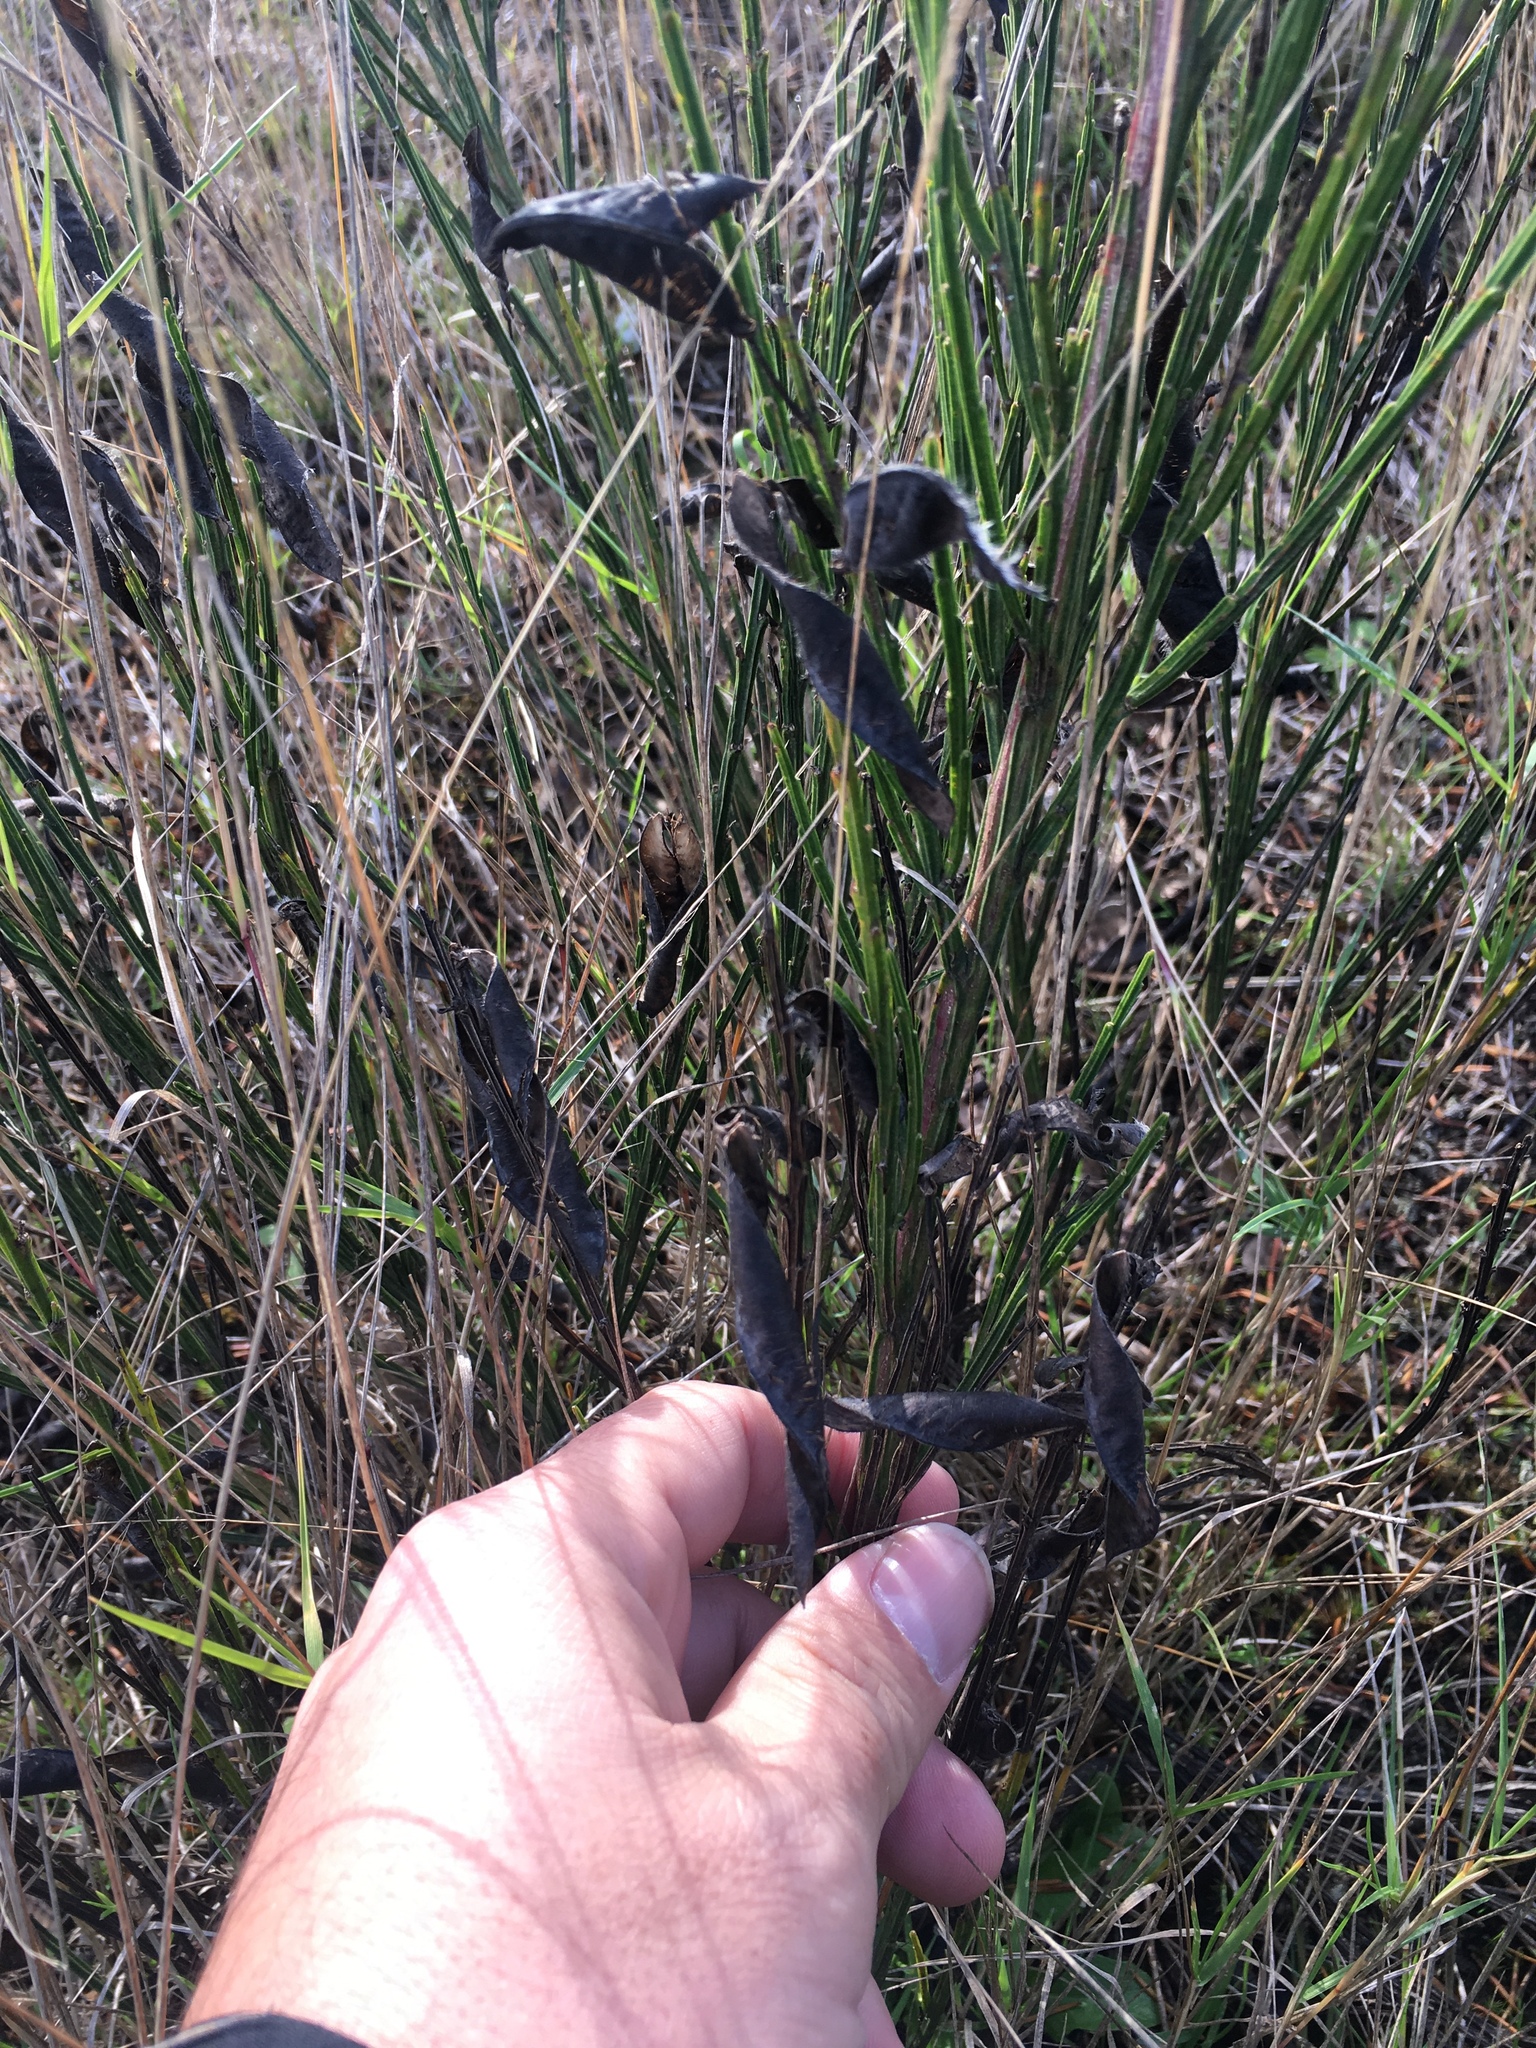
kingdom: Plantae
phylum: Tracheophyta
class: Magnoliopsida
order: Fabales
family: Fabaceae
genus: Cytisus
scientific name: Cytisus scoparius
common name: Scotch broom
